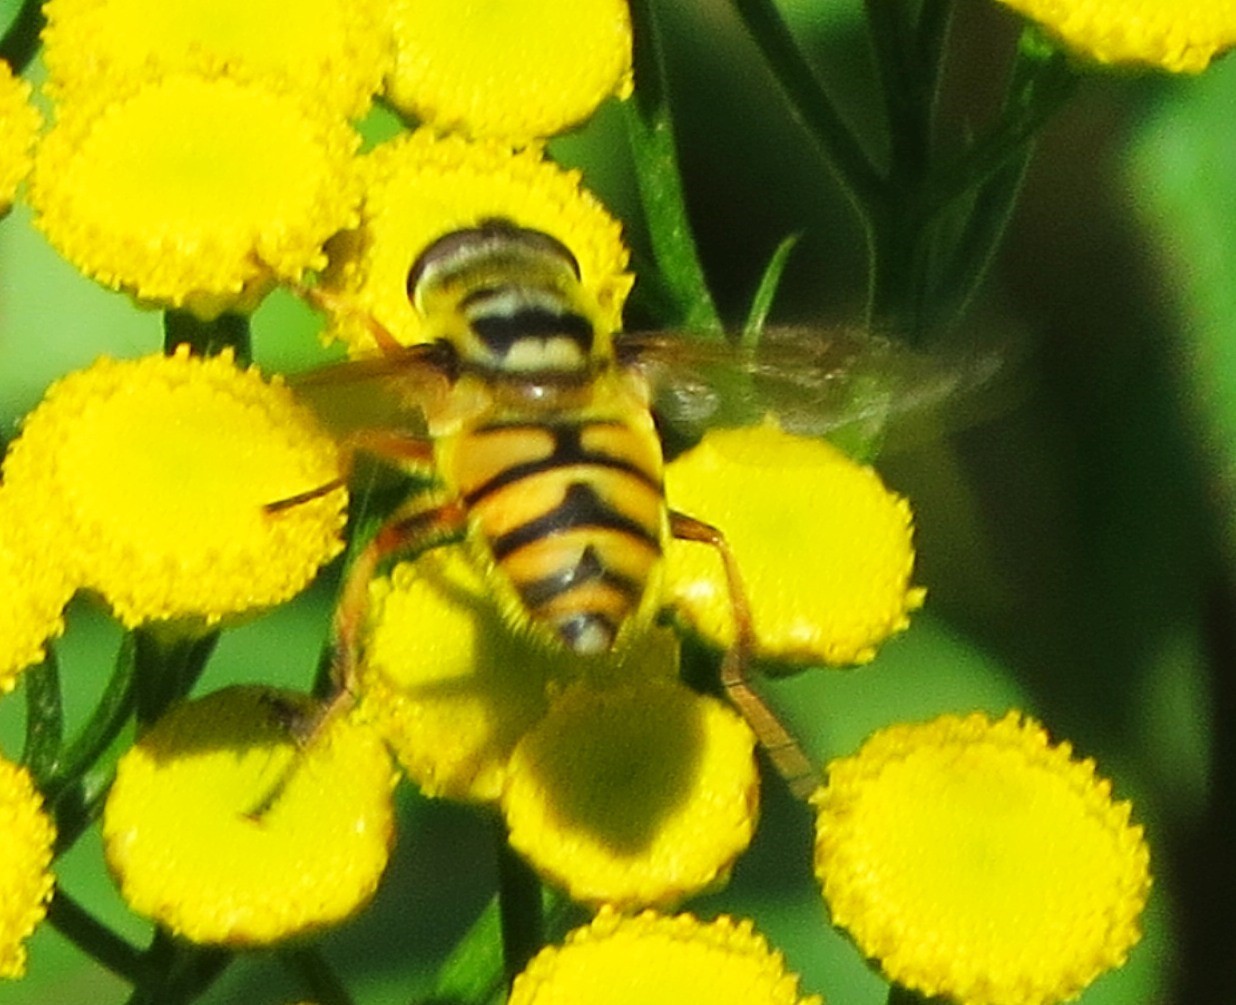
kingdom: Animalia
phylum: Arthropoda
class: Insecta
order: Diptera
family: Syrphidae
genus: Myathropa
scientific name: Myathropa florea
